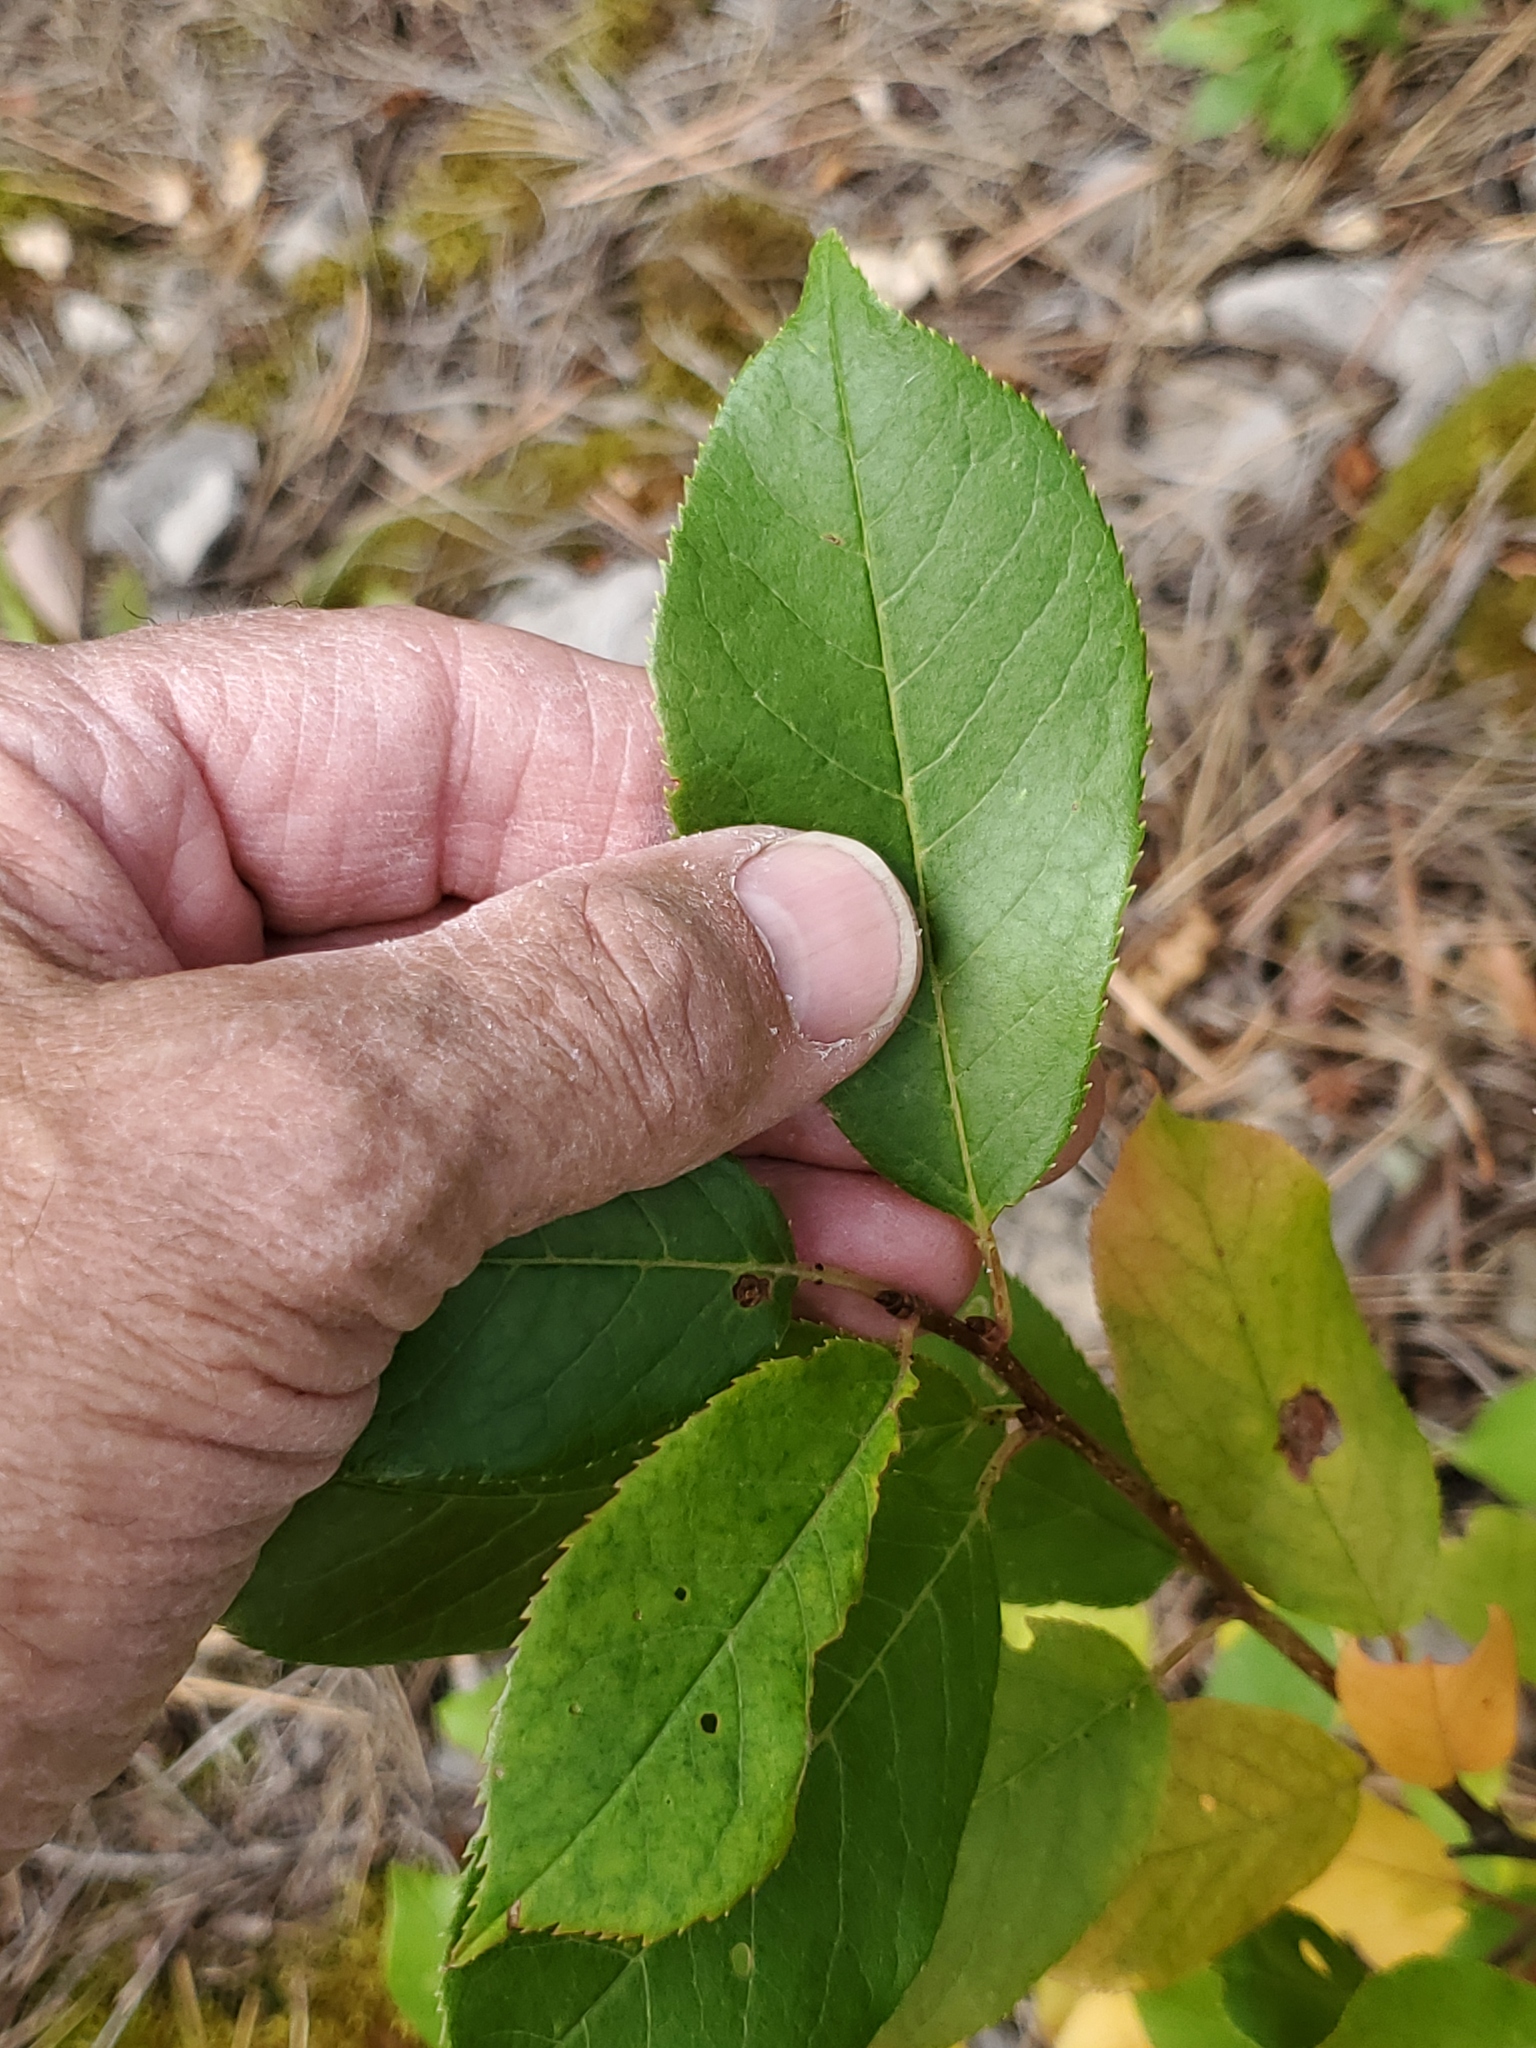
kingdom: Plantae
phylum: Tracheophyta
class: Magnoliopsida
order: Rosales
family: Rosaceae
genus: Prunus
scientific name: Prunus virginiana
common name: Chokecherry
